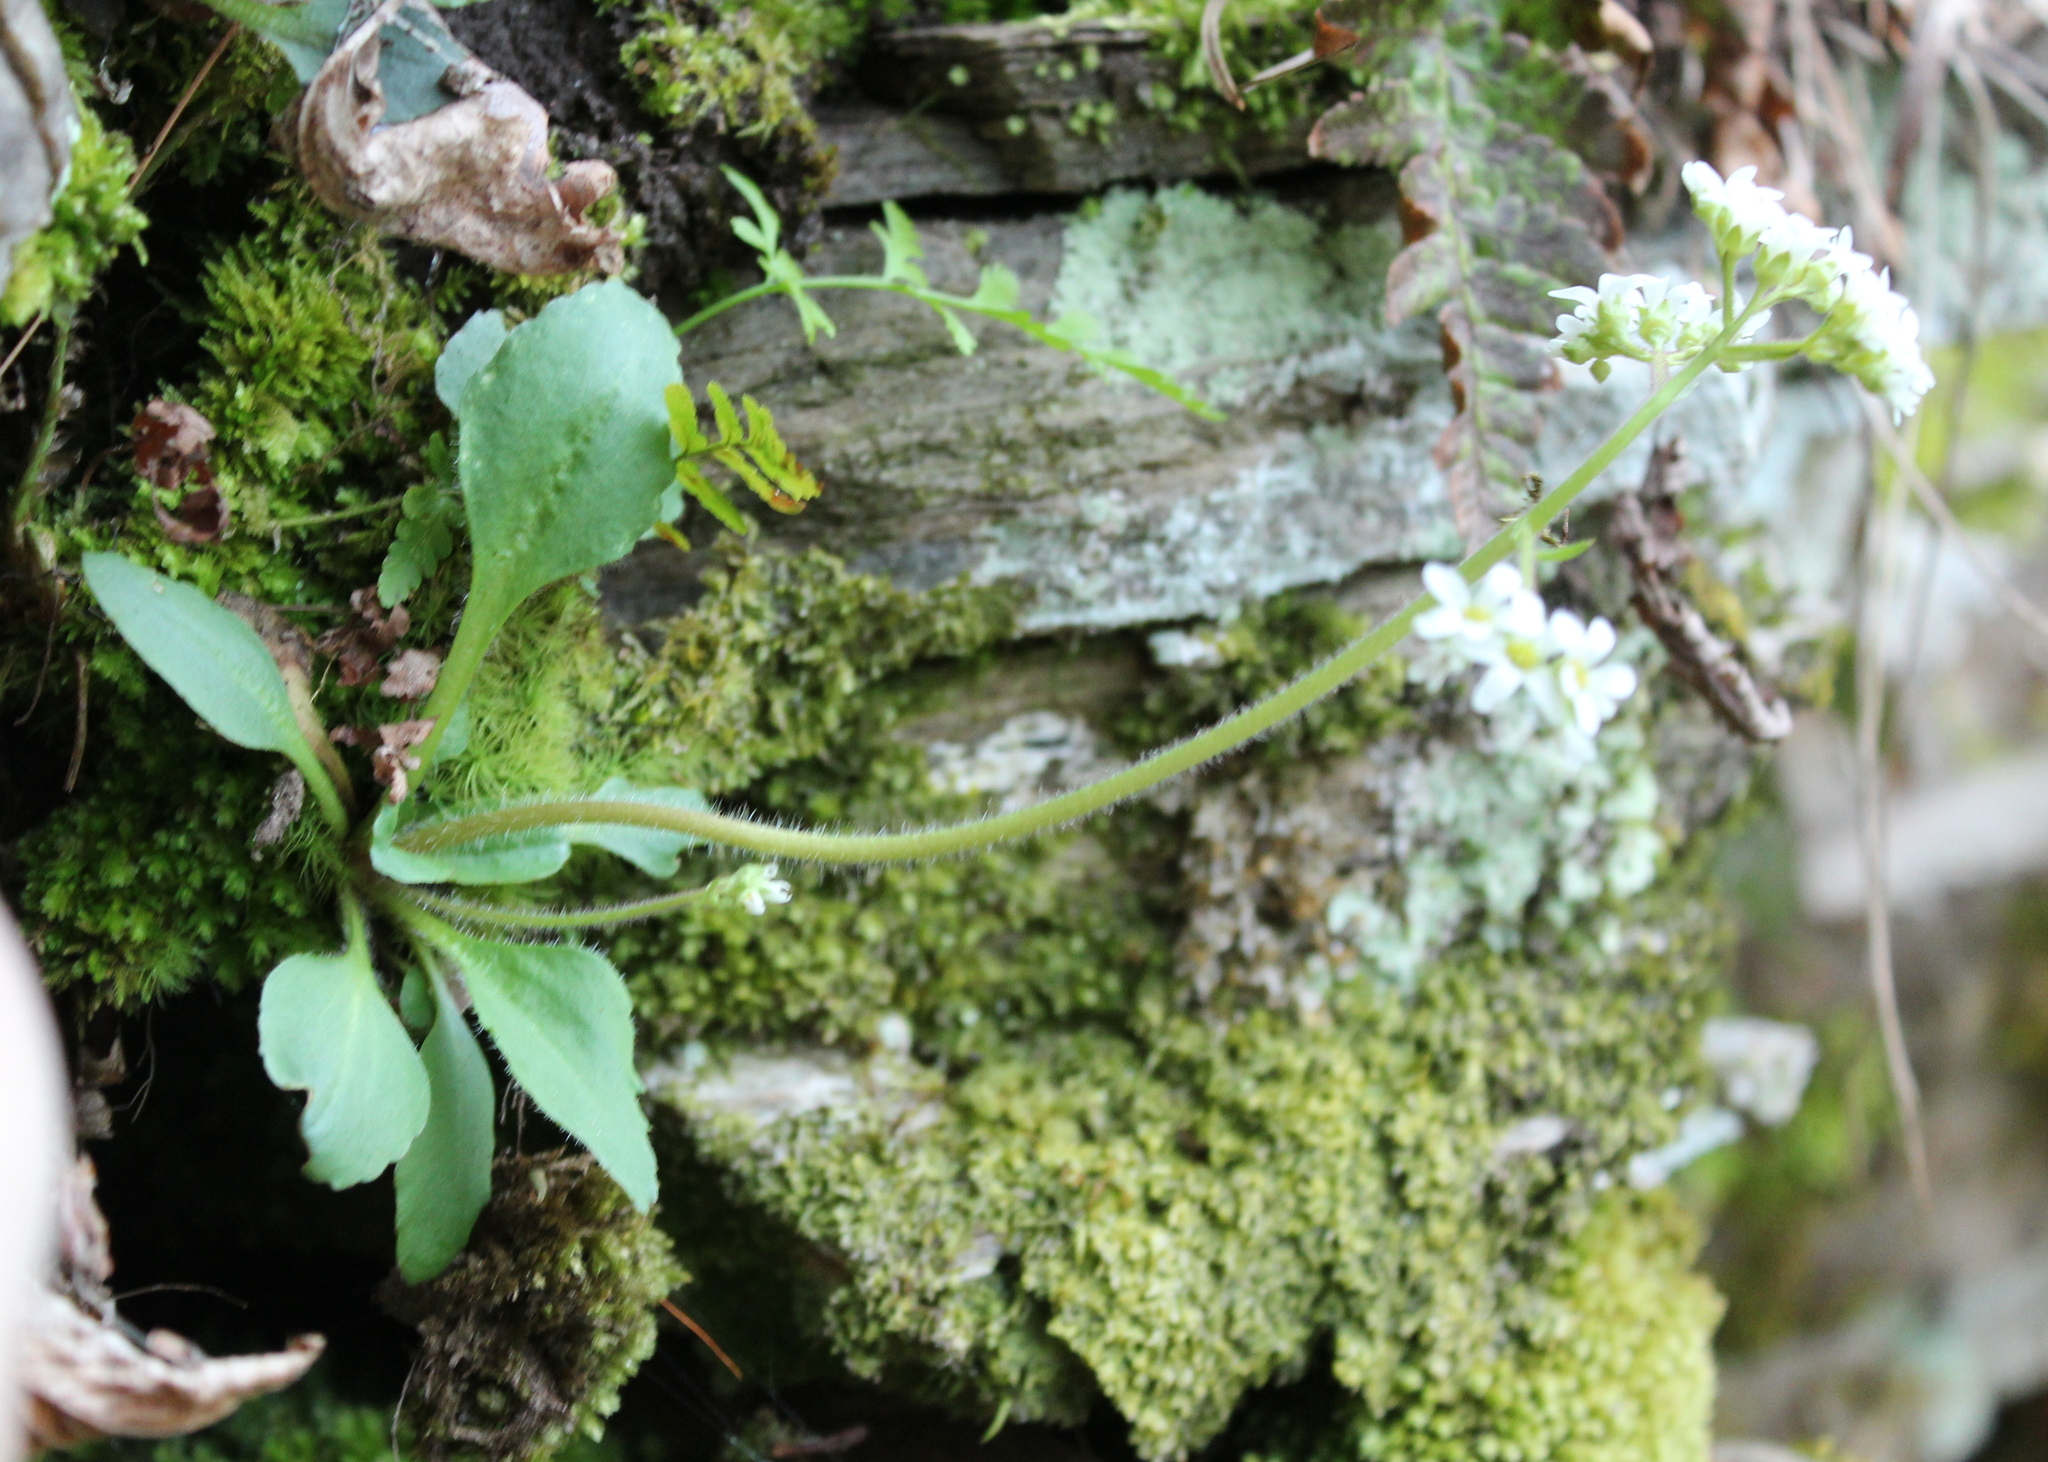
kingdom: Plantae
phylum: Tracheophyta
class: Magnoliopsida
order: Saxifragales
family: Saxifragaceae
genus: Micranthes
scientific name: Micranthes virginiensis
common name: Early saxifrage
